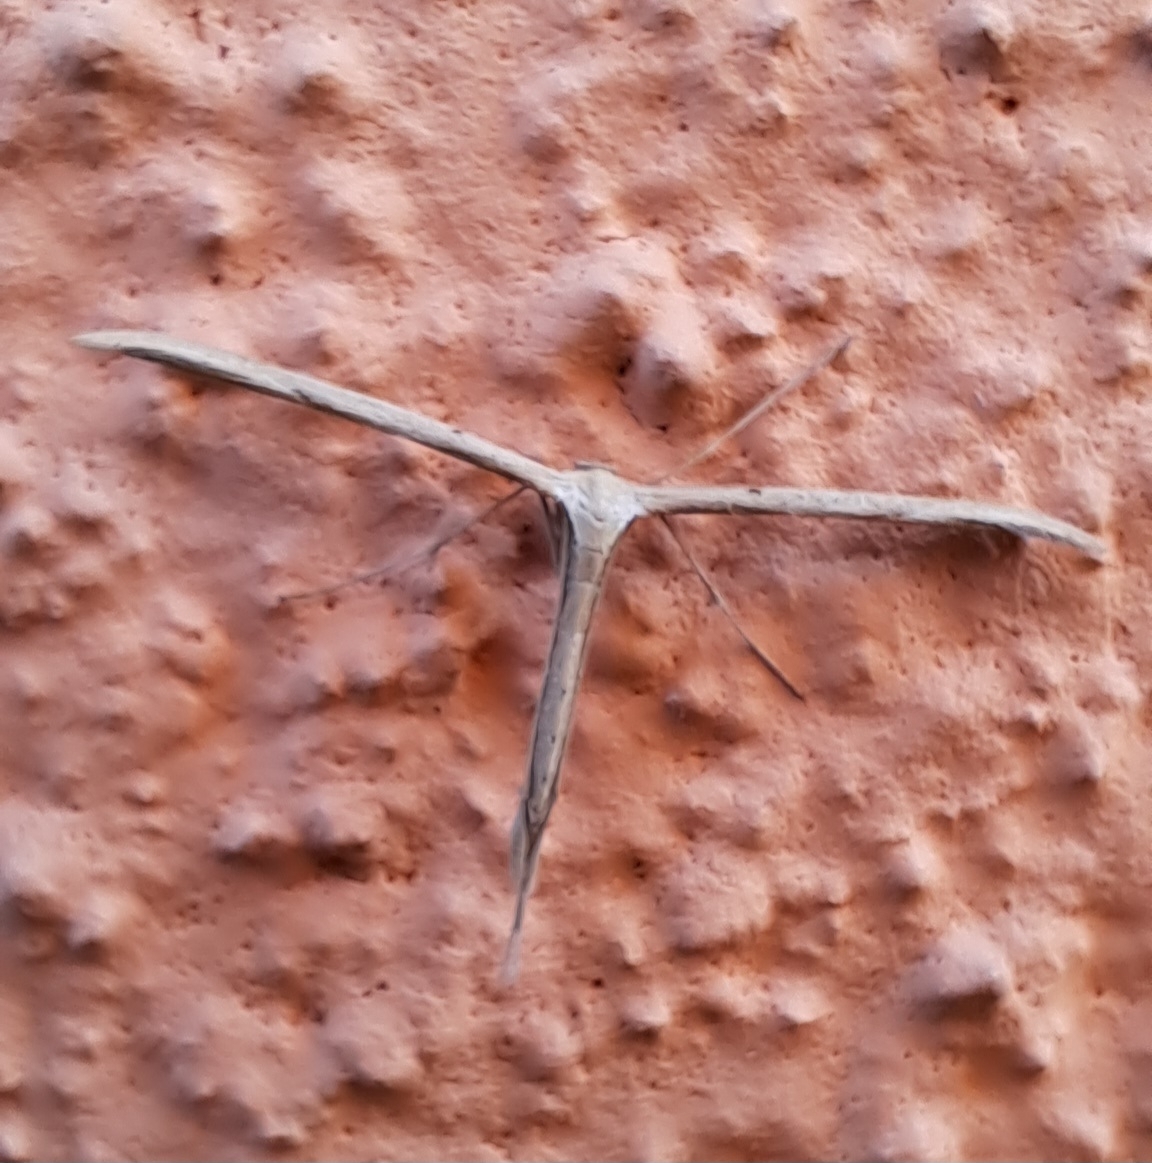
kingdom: Animalia
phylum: Arthropoda
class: Insecta
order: Lepidoptera
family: Pterophoridae
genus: Emmelina
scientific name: Emmelina monodactyla
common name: Common plume
